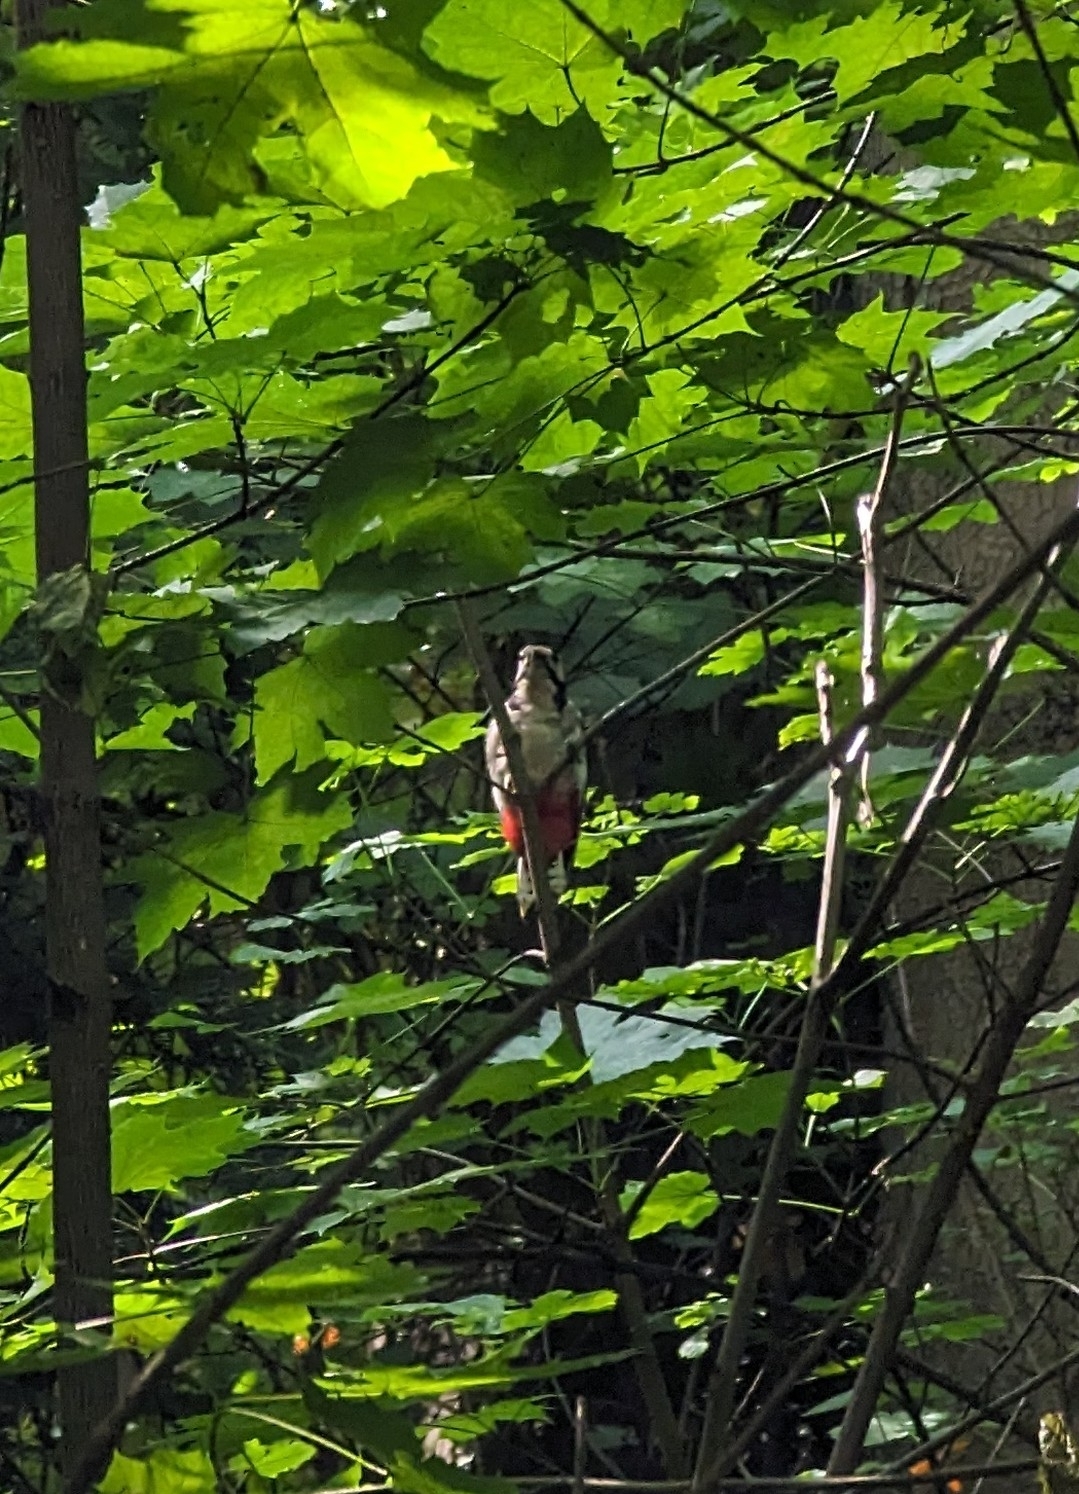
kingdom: Animalia
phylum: Chordata
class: Aves
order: Piciformes
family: Picidae
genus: Dendrocopos
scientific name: Dendrocopos major
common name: Great spotted woodpecker
